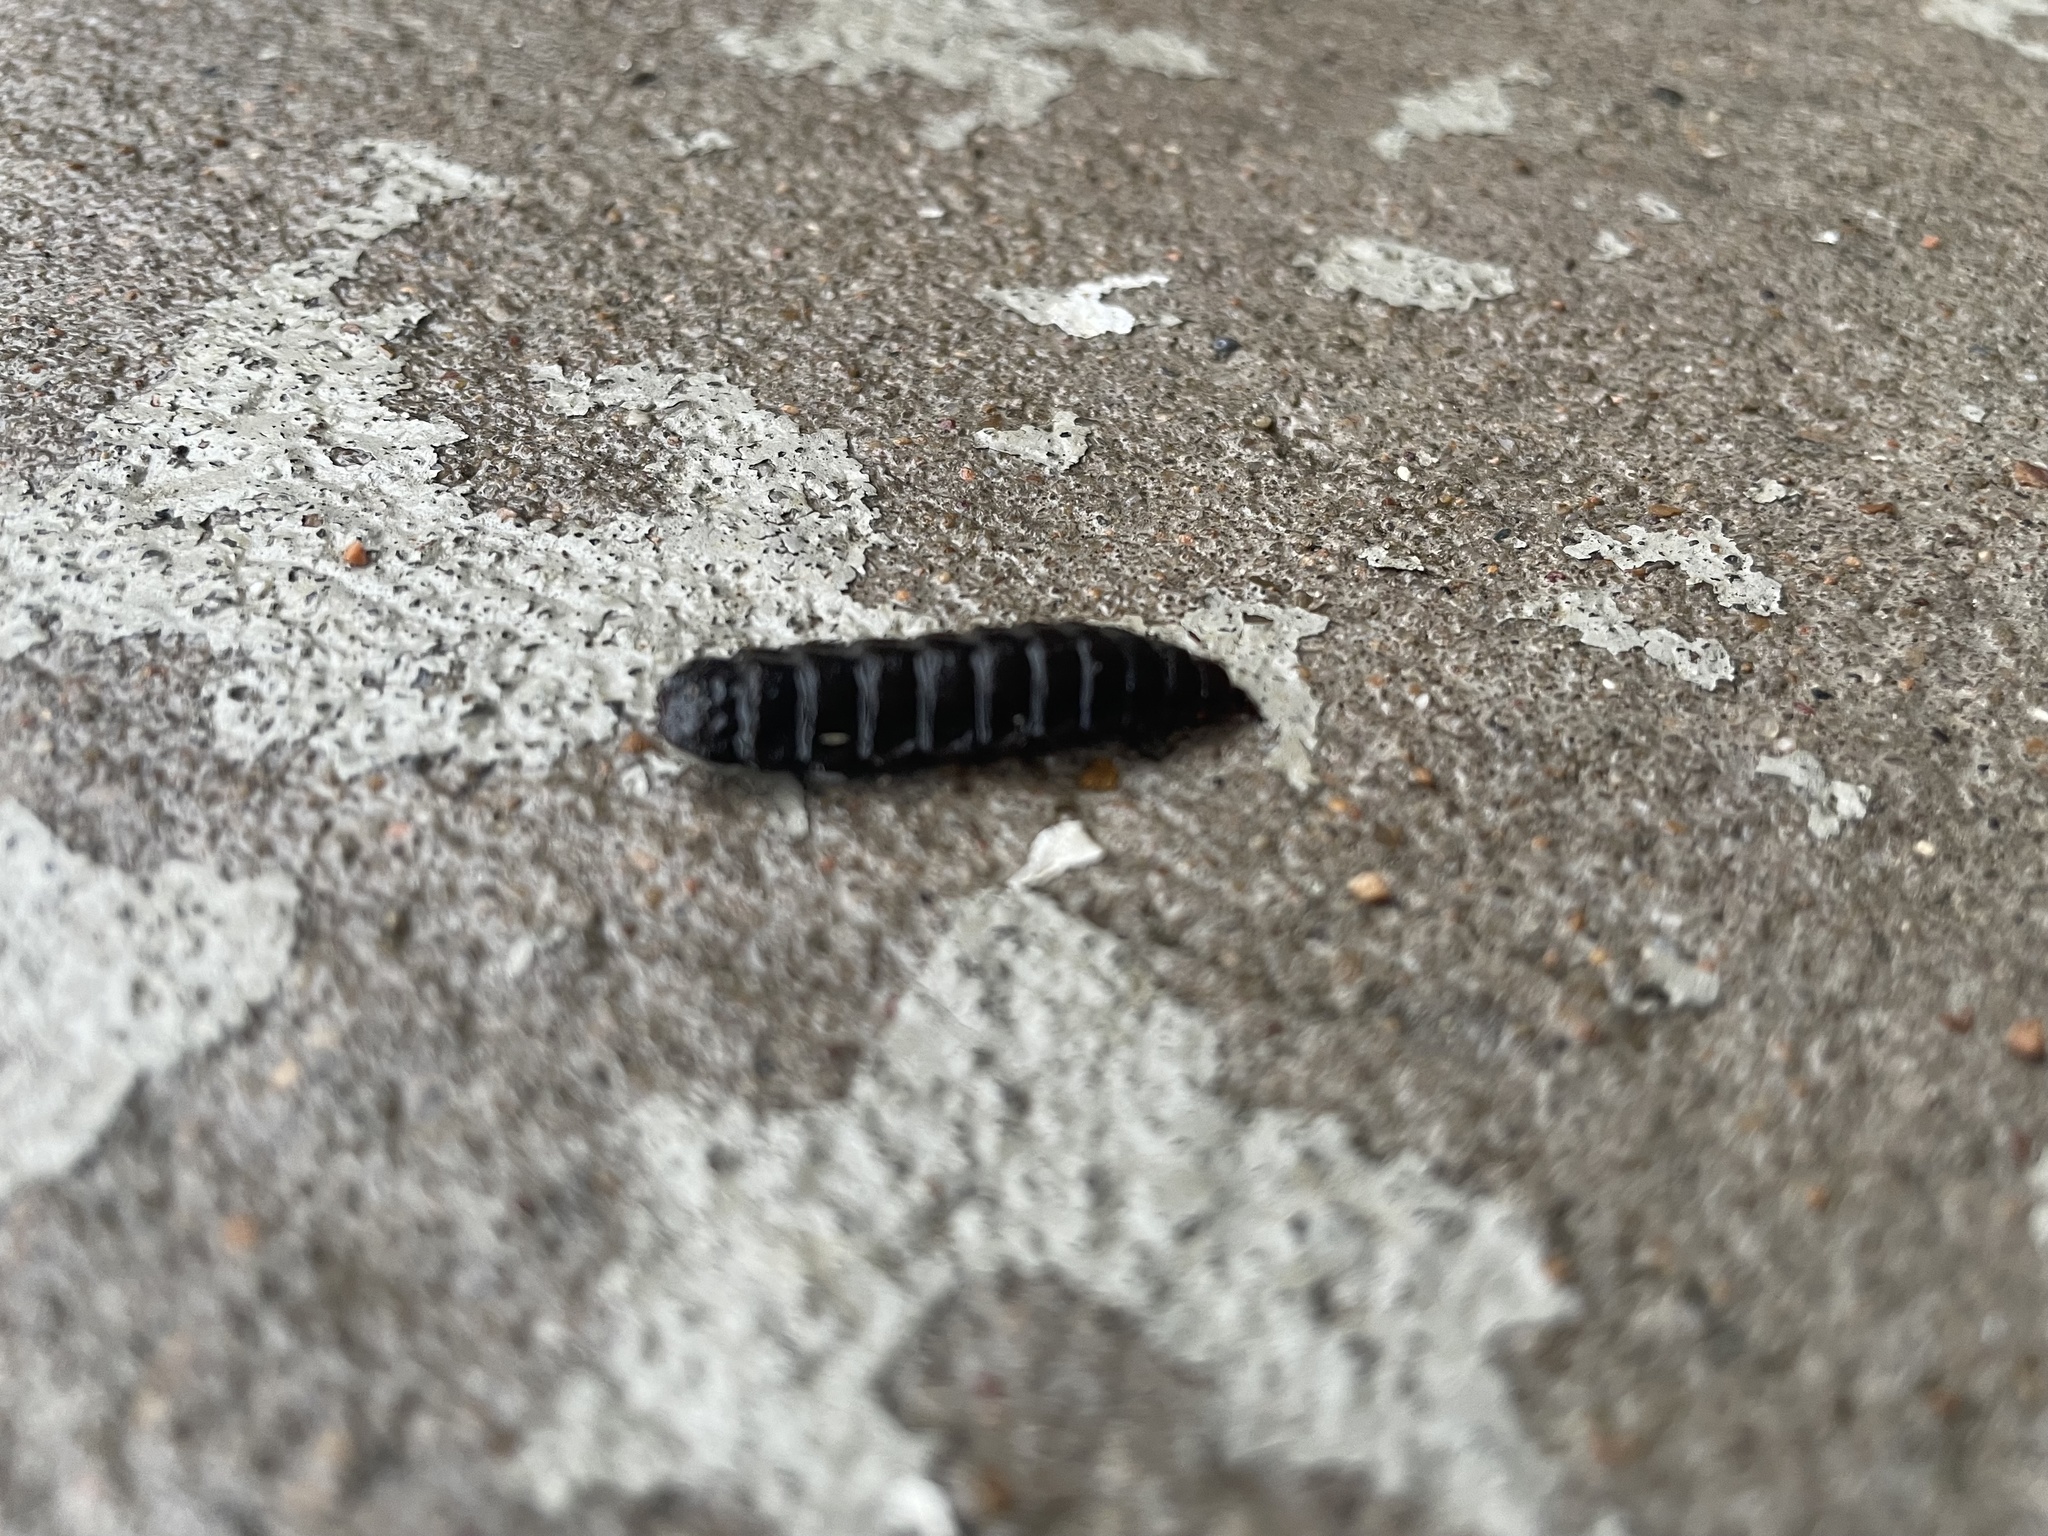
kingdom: Animalia
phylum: Arthropoda
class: Insecta
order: Diptera
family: Stratiomyidae
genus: Hermetia
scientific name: Hermetia illucens
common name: Black soldier fly
